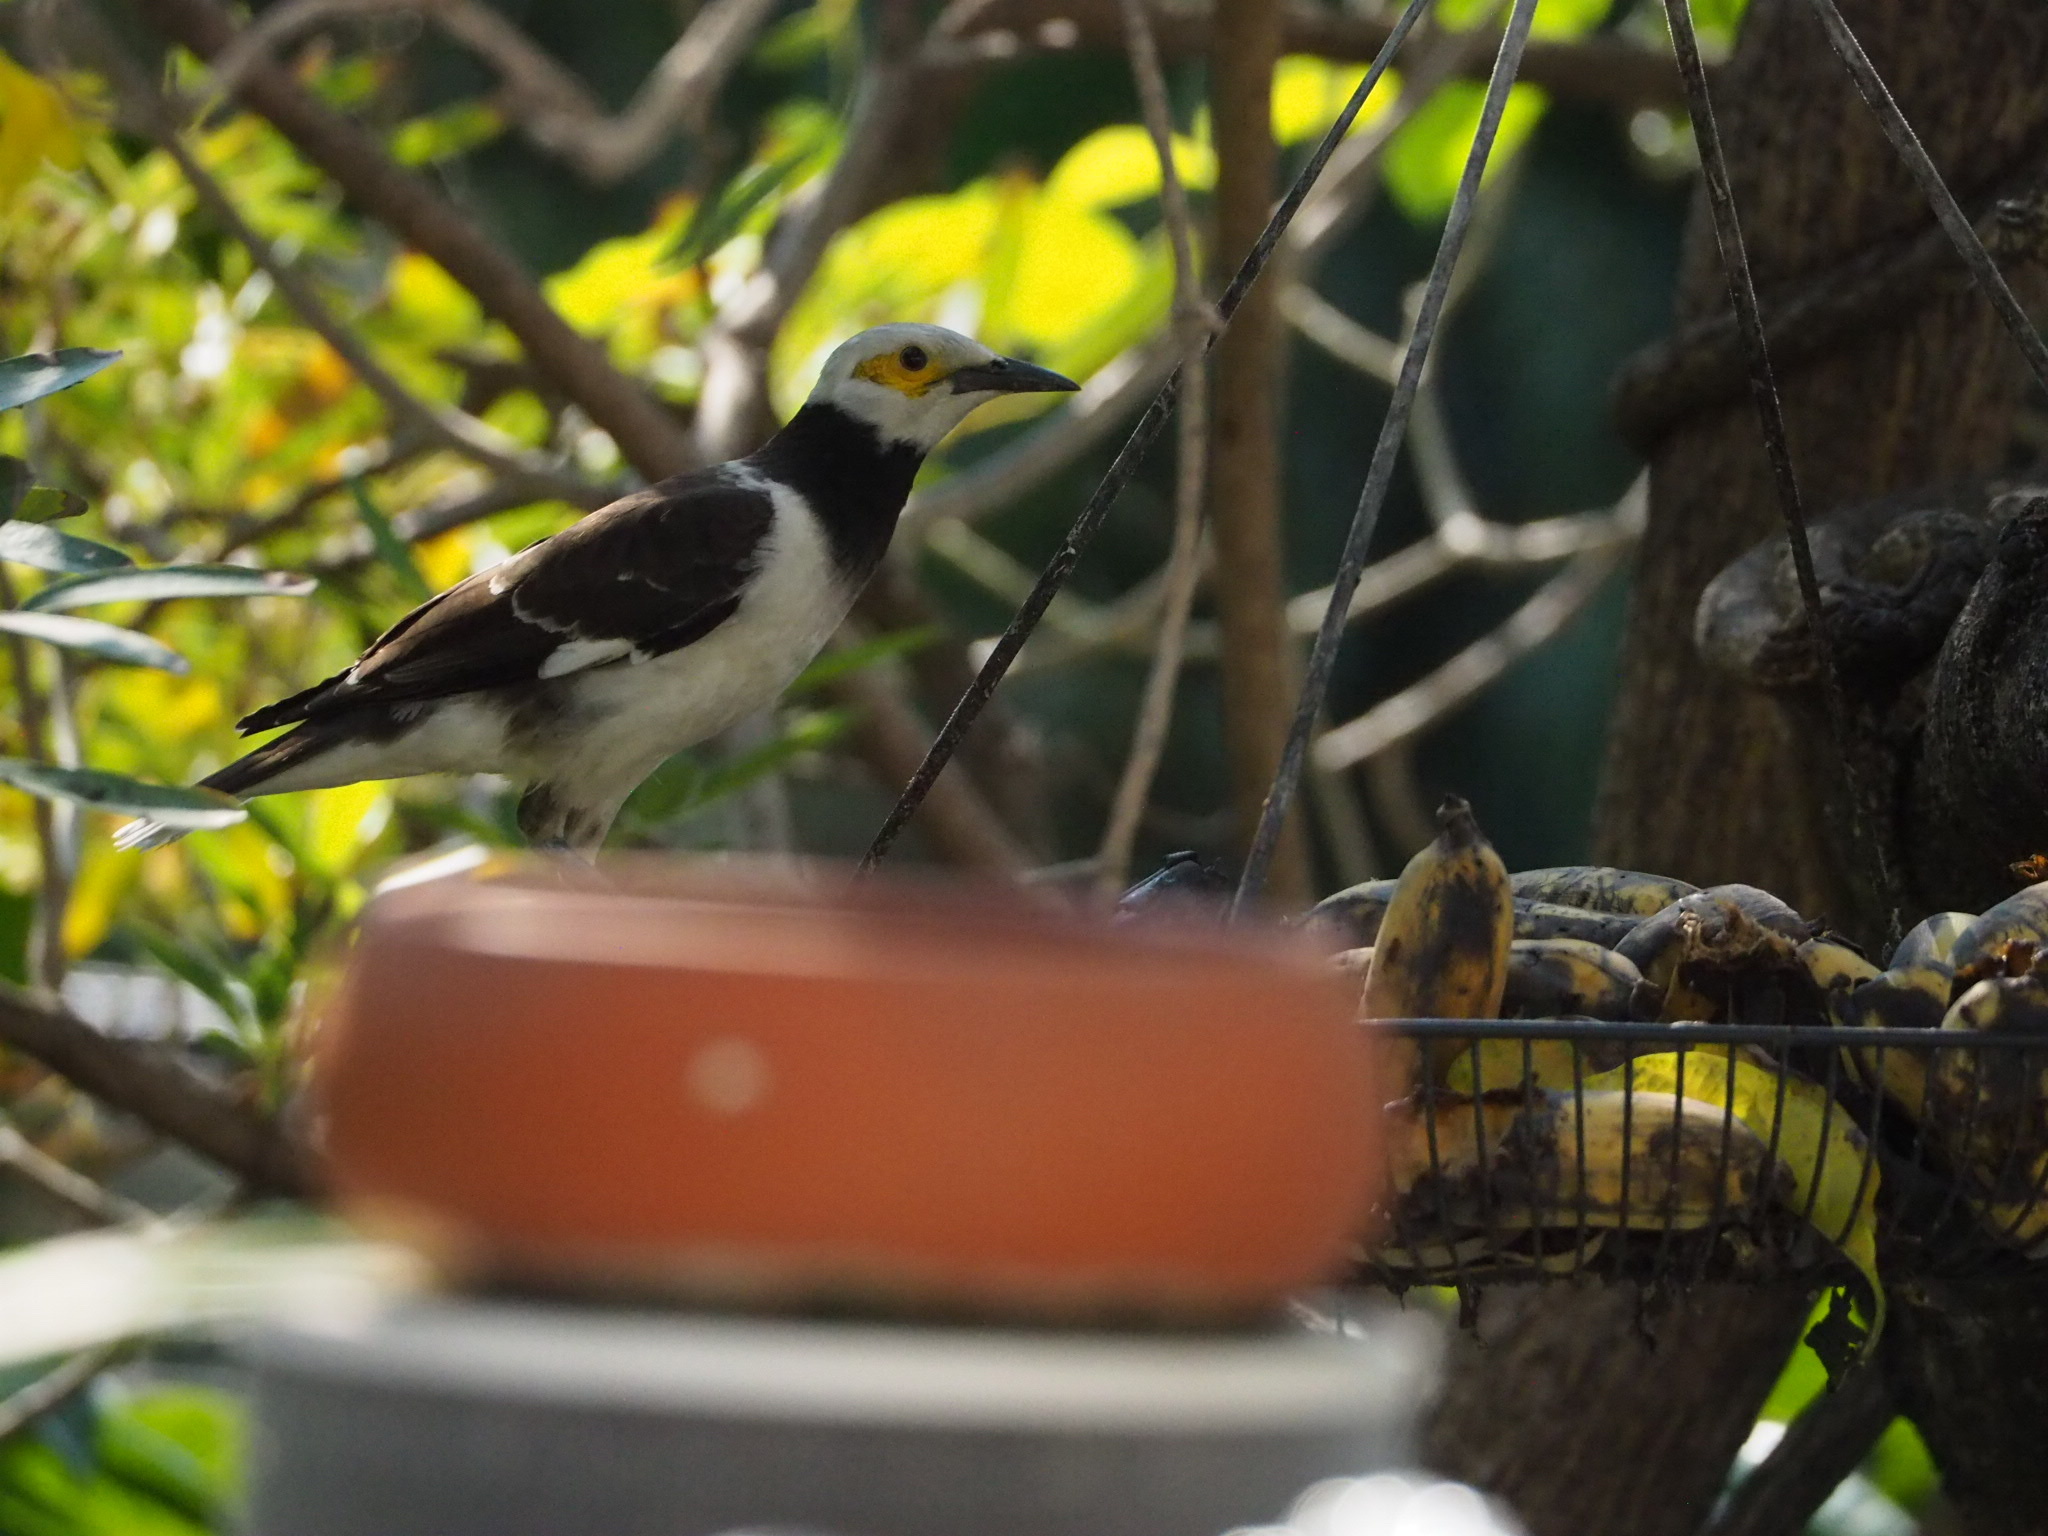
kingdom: Animalia
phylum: Chordata
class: Aves
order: Passeriformes
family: Sturnidae
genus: Gracupica
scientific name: Gracupica nigricollis
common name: Black-collared starling
